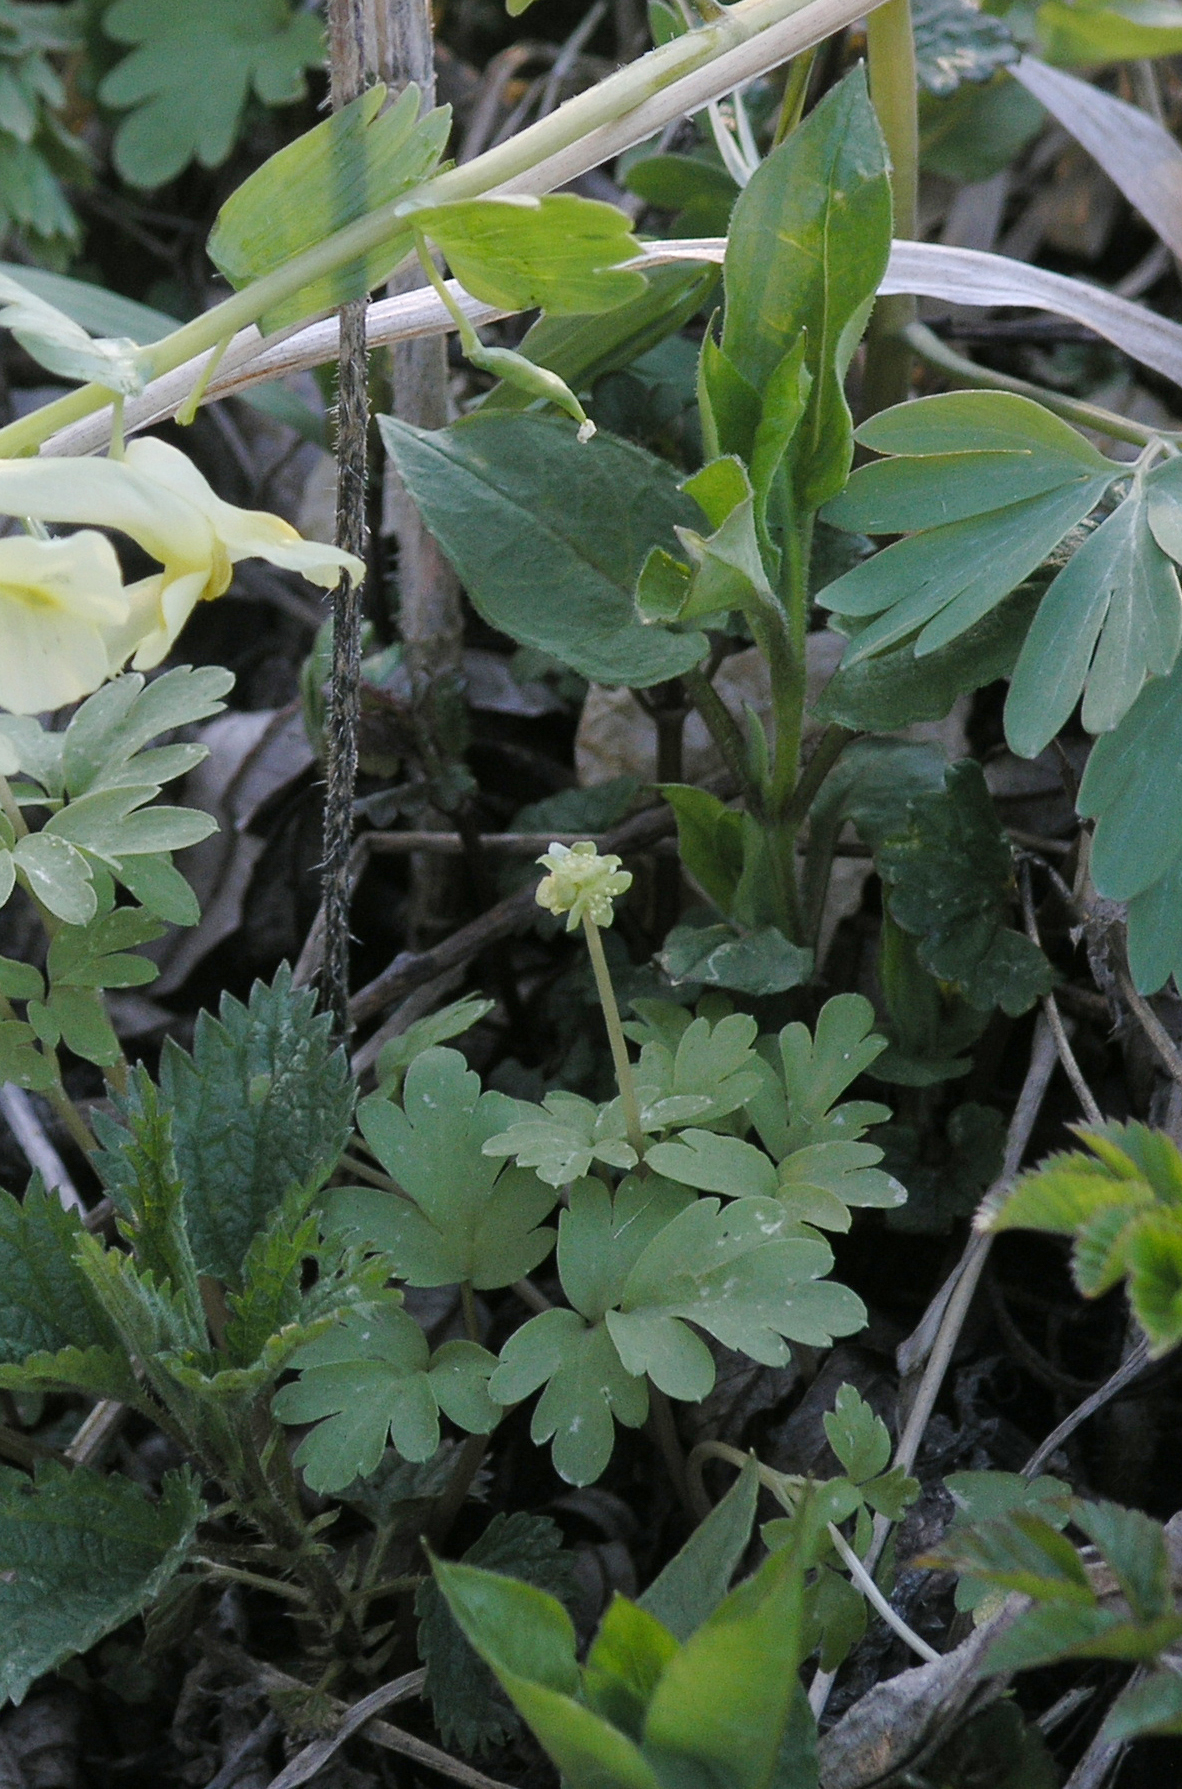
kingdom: Plantae
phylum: Tracheophyta
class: Magnoliopsida
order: Dipsacales
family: Viburnaceae
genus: Adoxa
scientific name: Adoxa moschatellina
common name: Moschatel
